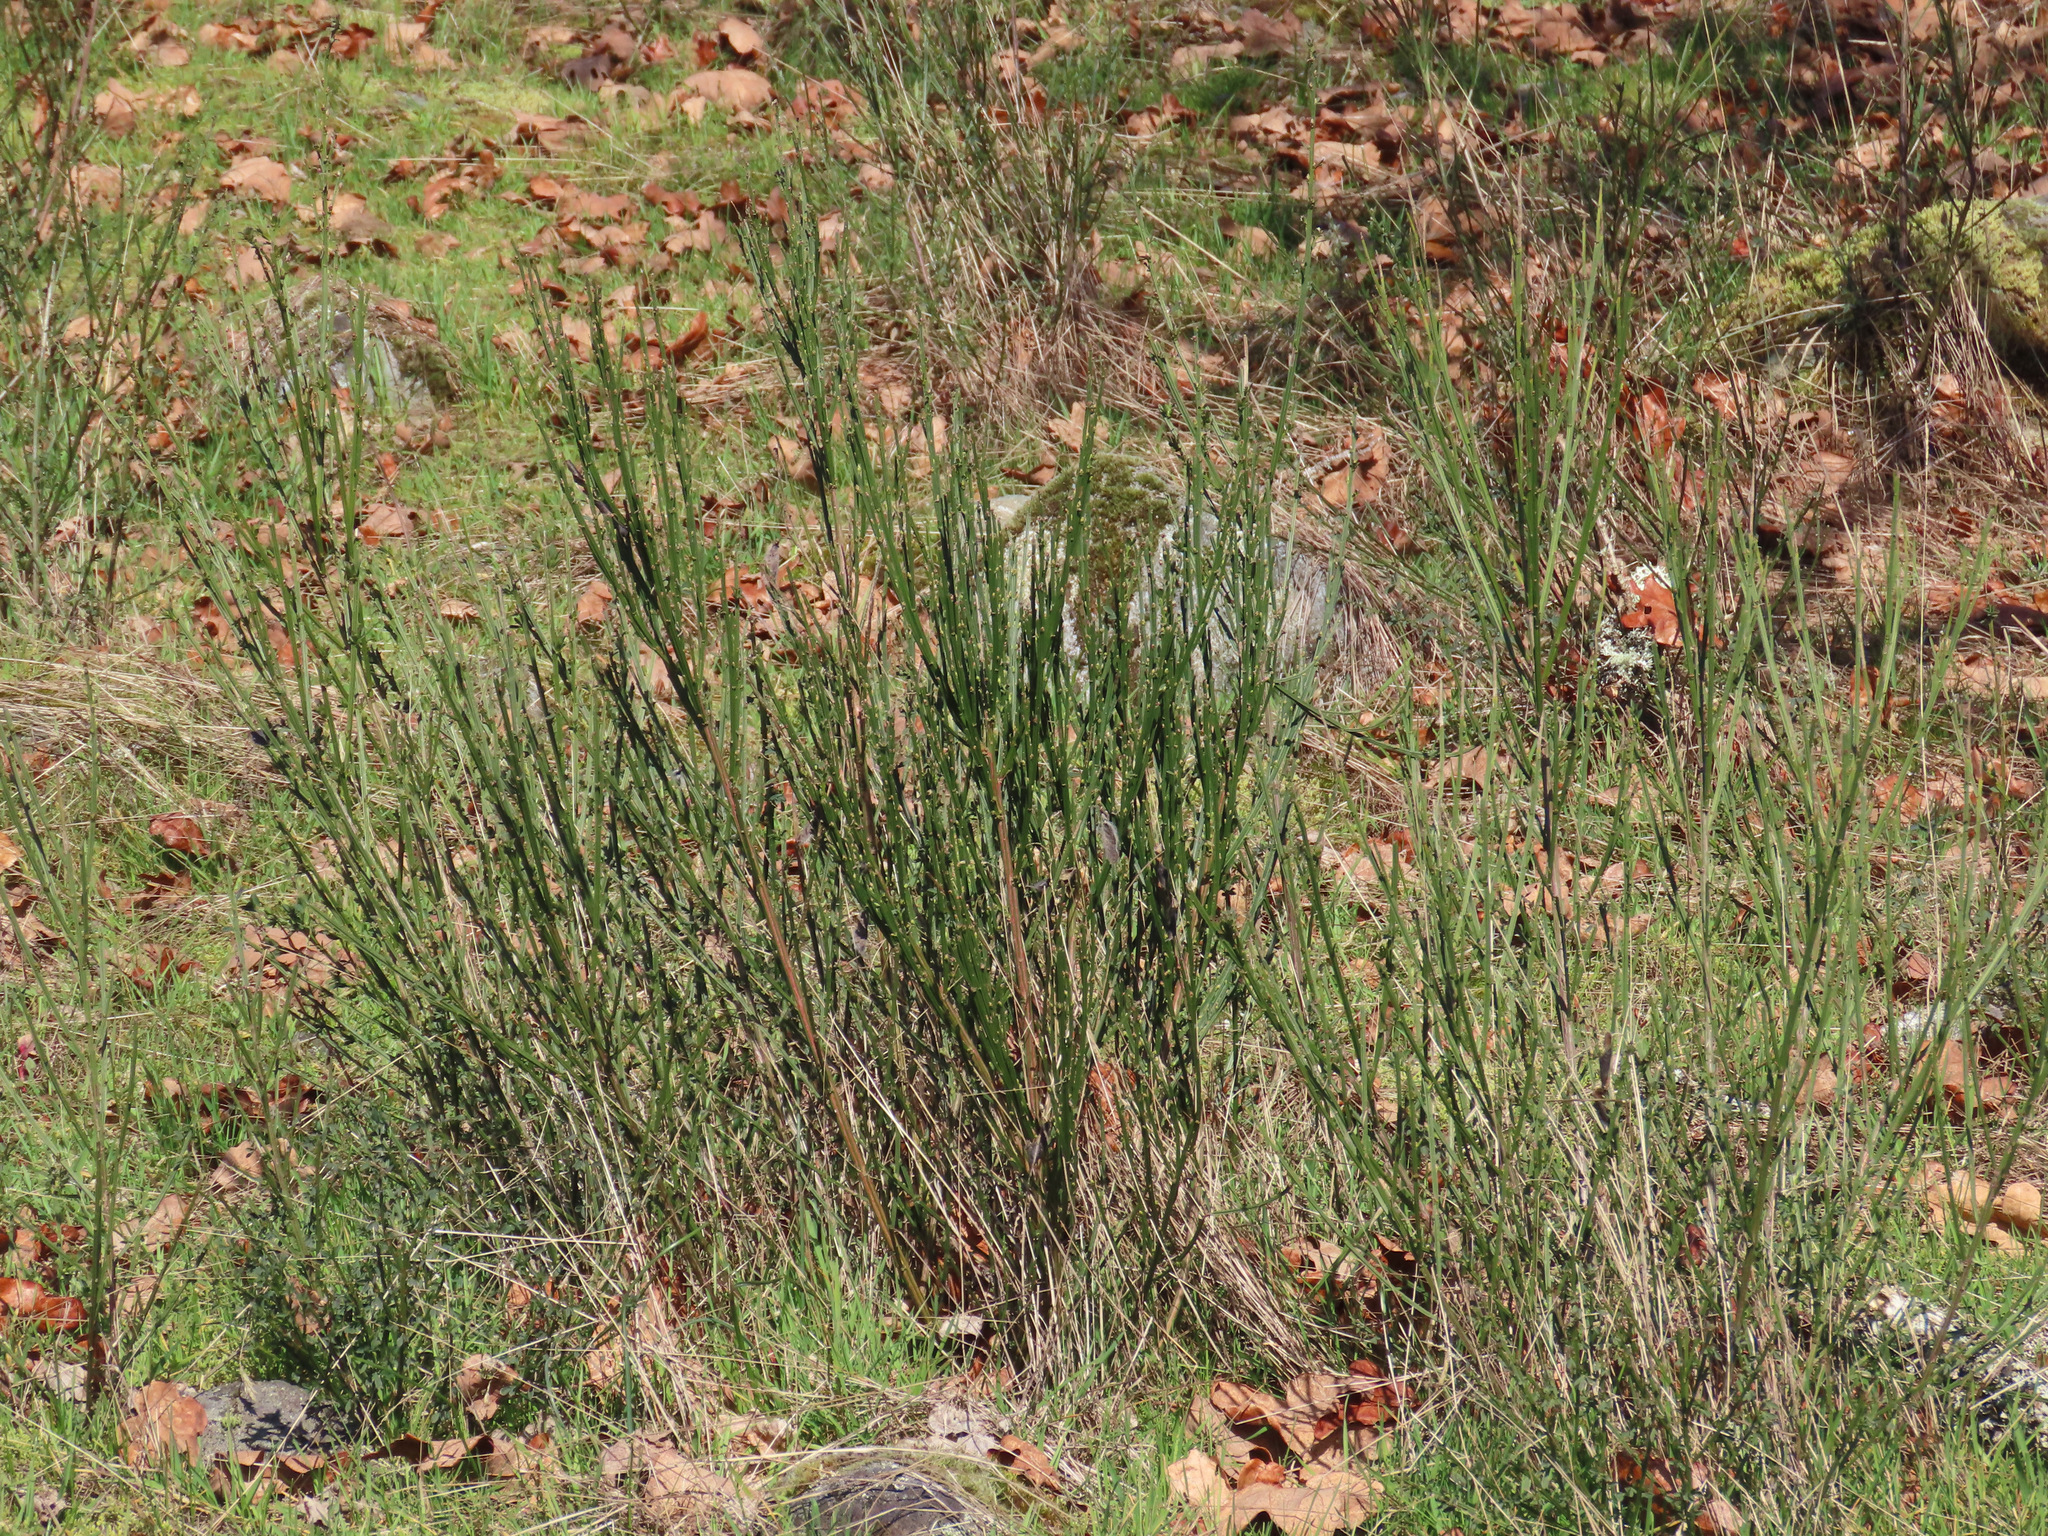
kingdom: Plantae
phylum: Tracheophyta
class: Magnoliopsida
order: Fabales
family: Fabaceae
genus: Cytisus
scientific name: Cytisus scoparius
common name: Scotch broom
